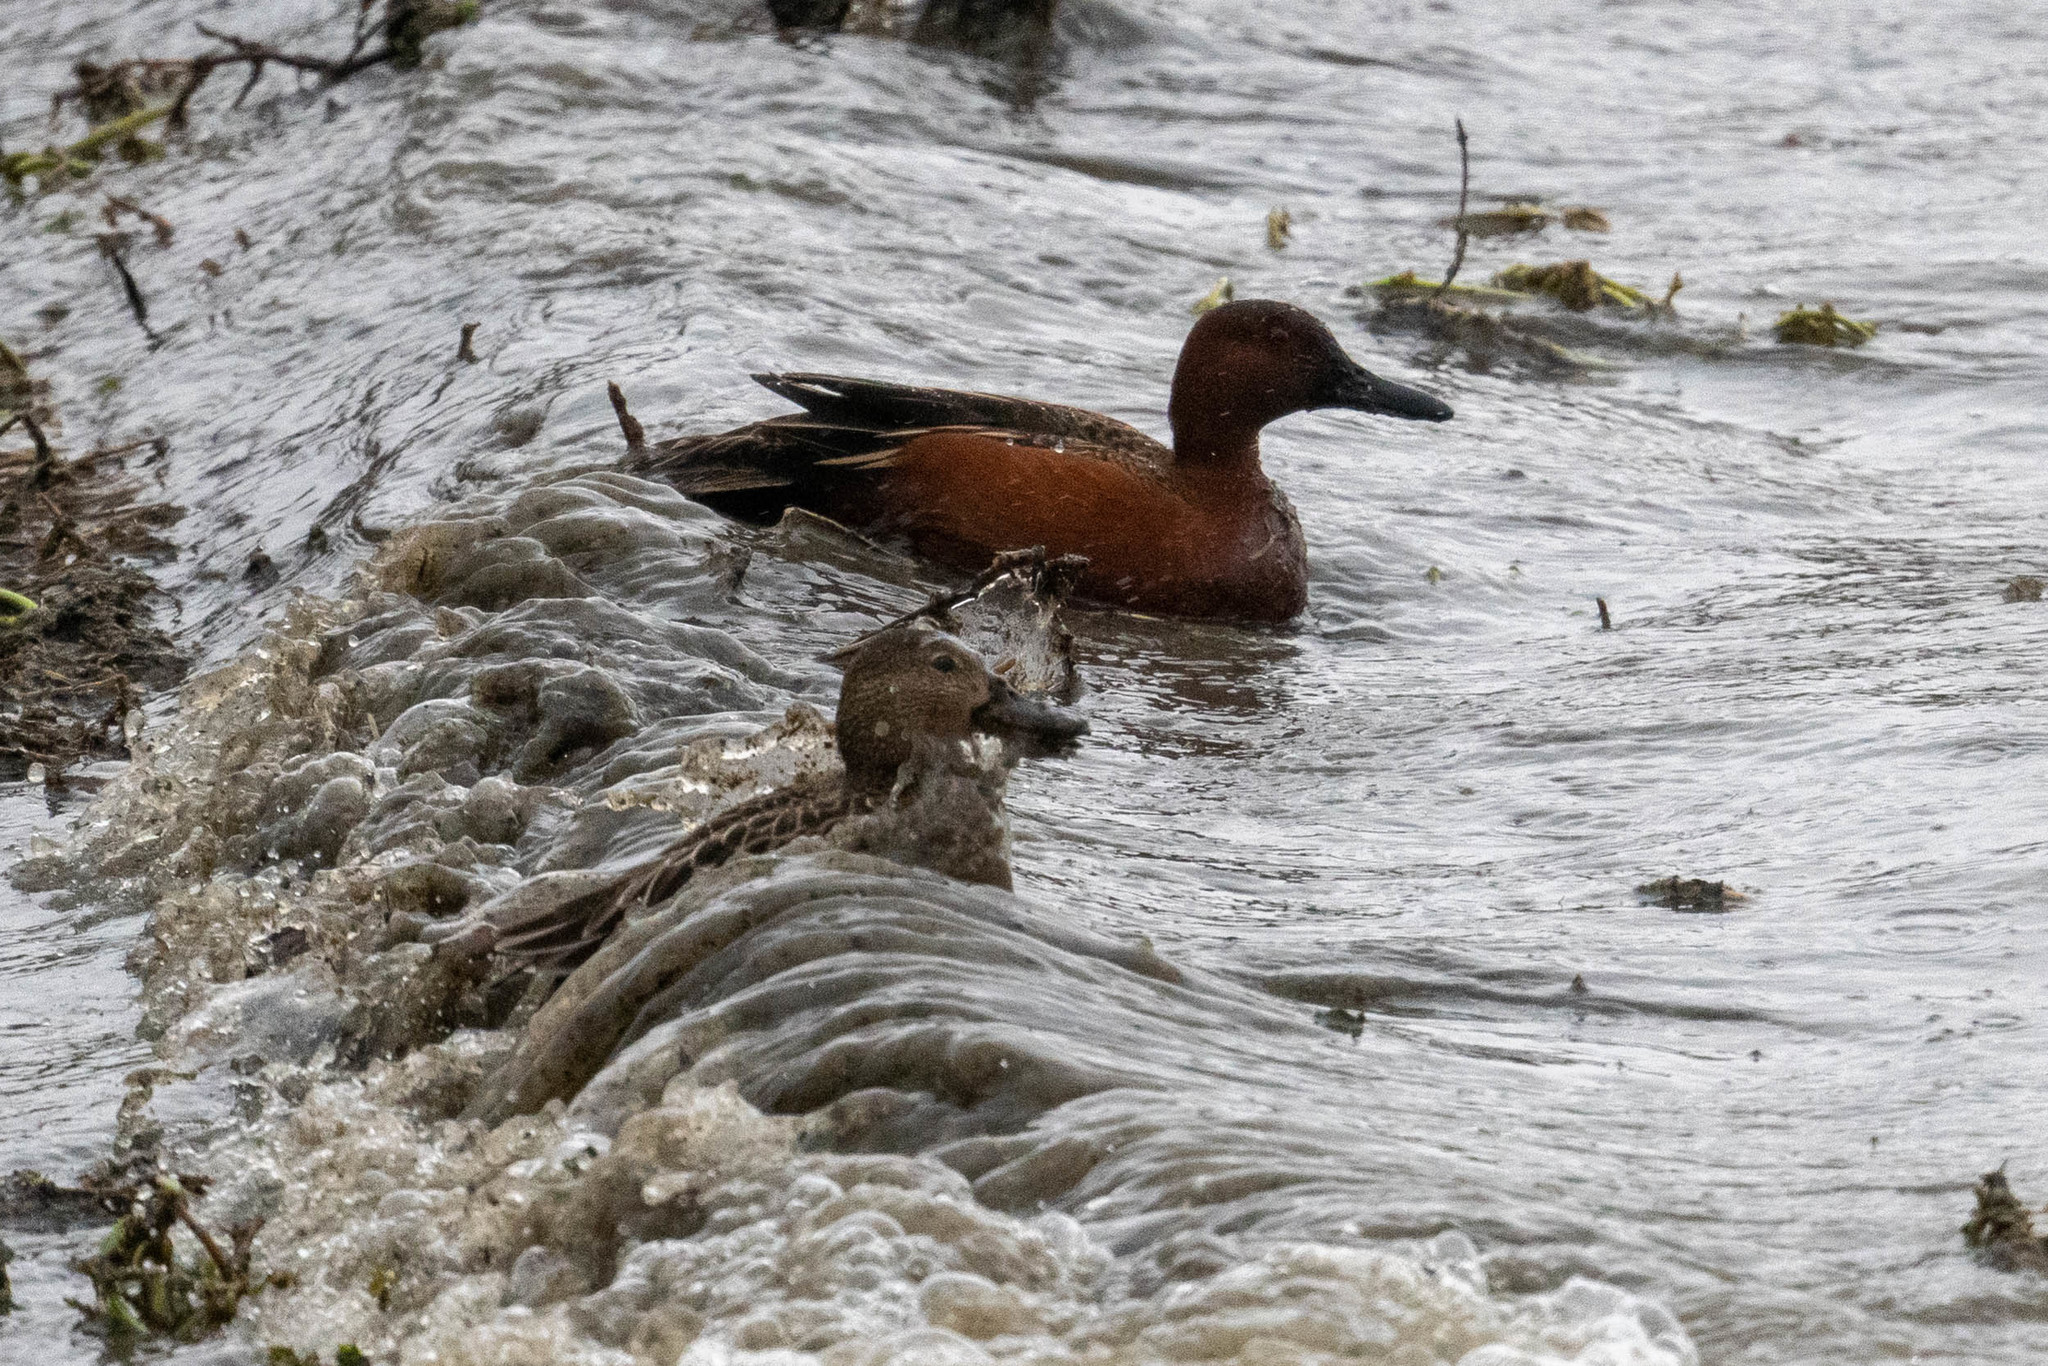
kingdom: Animalia
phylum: Chordata
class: Aves
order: Anseriformes
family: Anatidae
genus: Spatula
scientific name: Spatula cyanoptera
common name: Cinnamon teal
